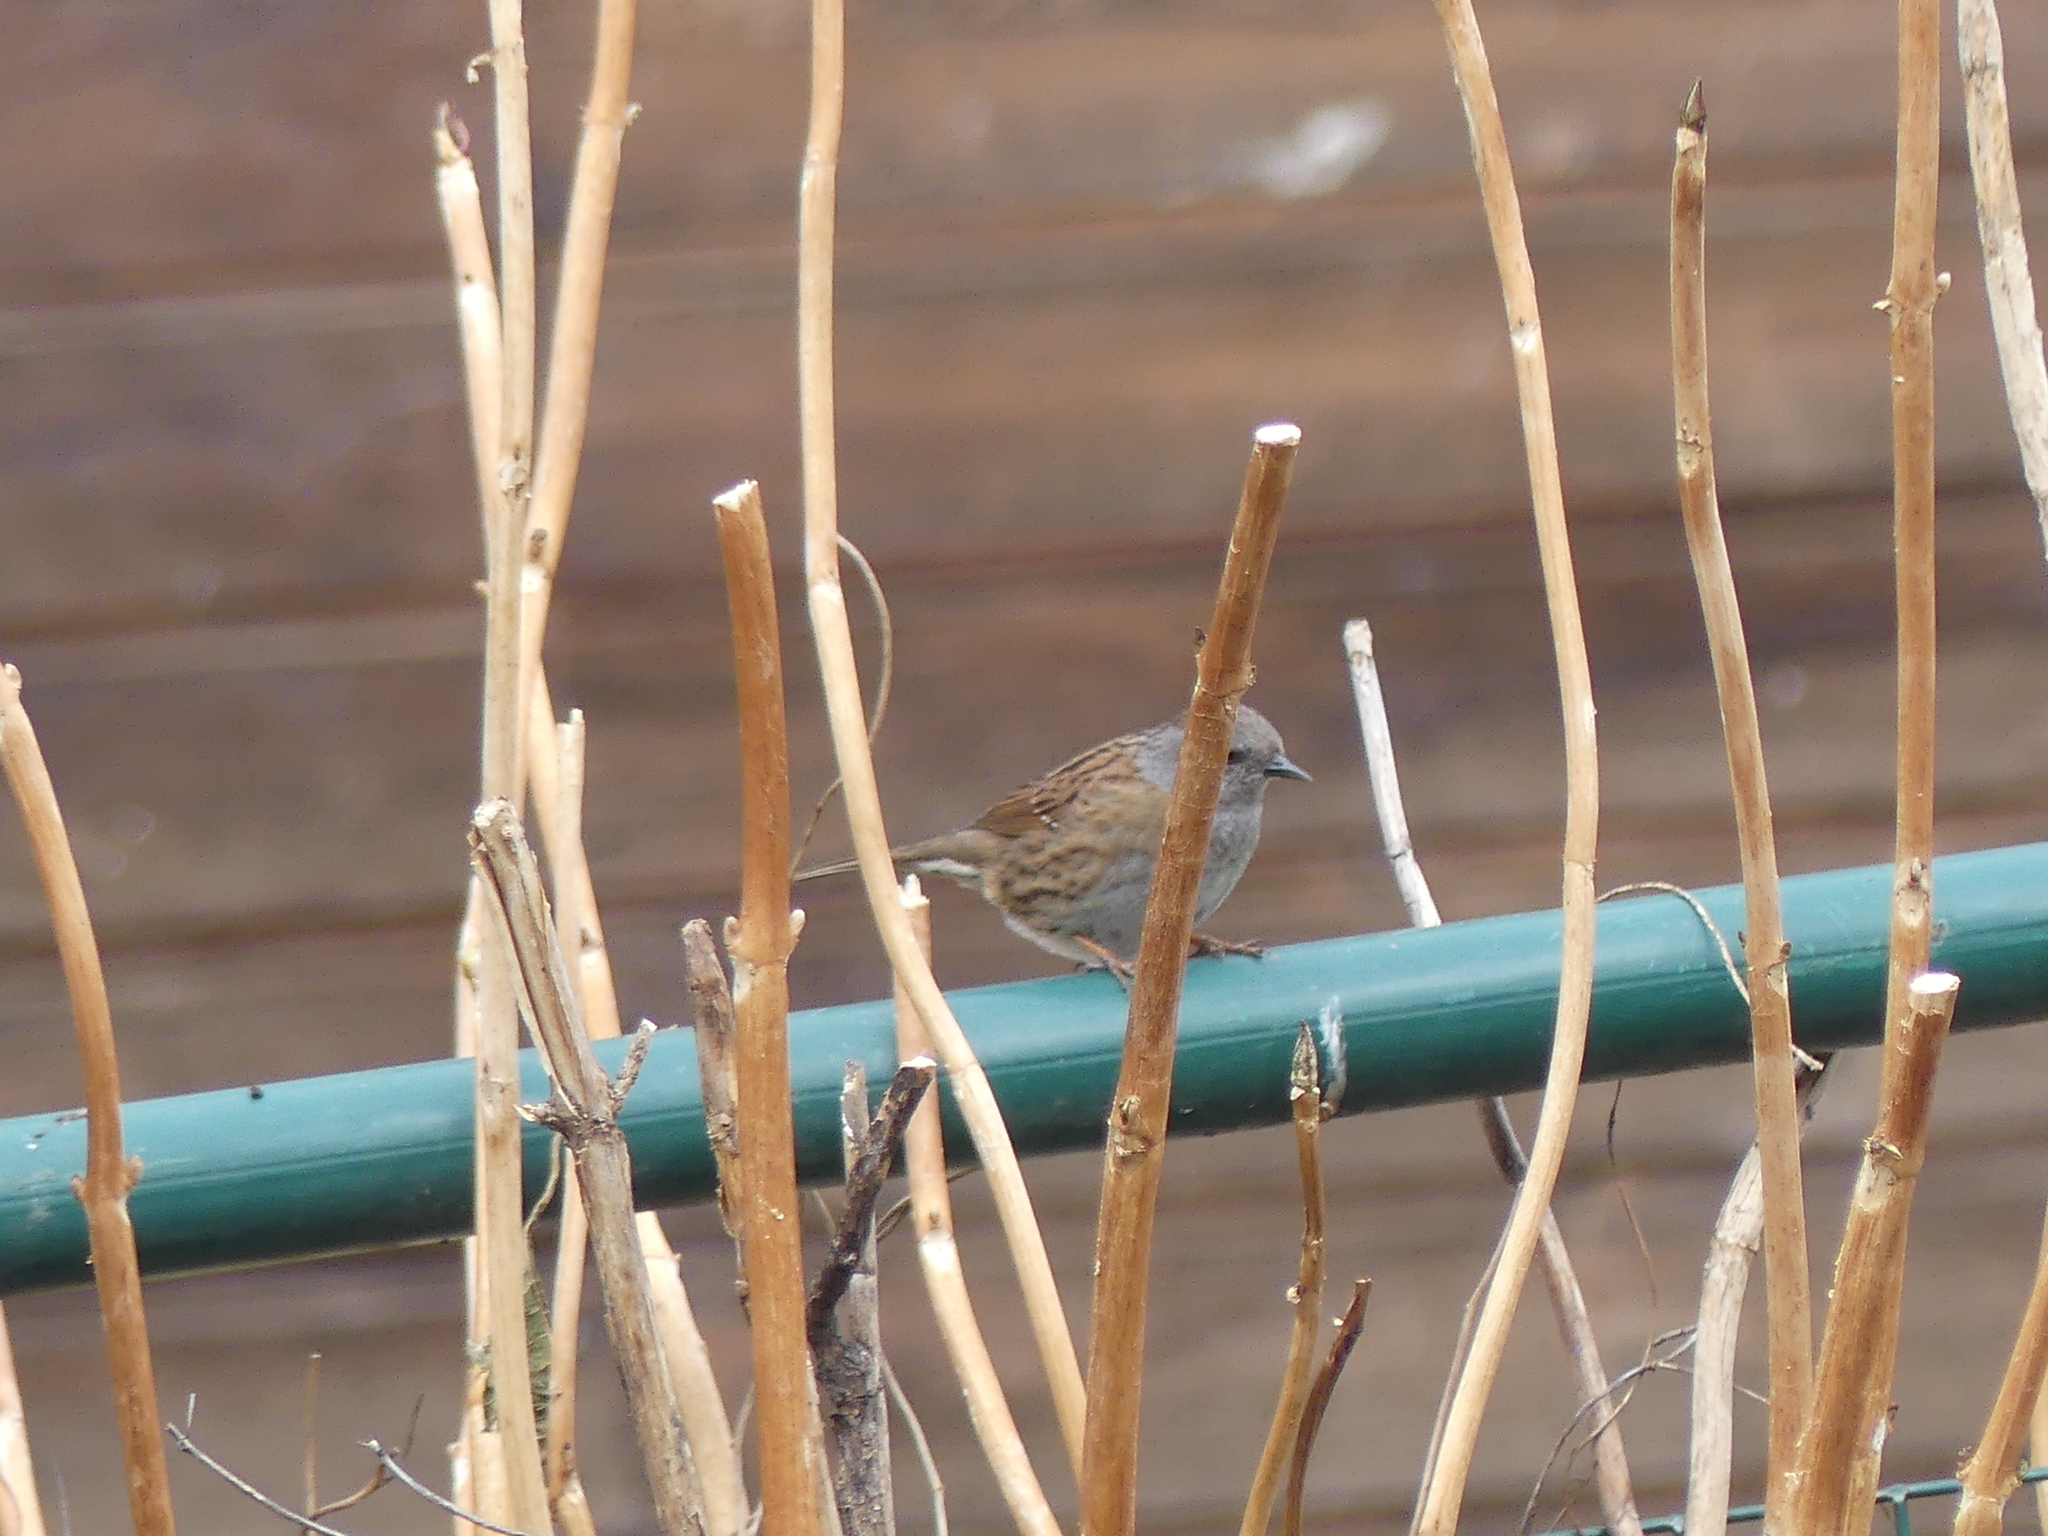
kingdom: Animalia
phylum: Chordata
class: Aves
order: Passeriformes
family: Prunellidae
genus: Prunella
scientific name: Prunella modularis
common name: Dunnock
